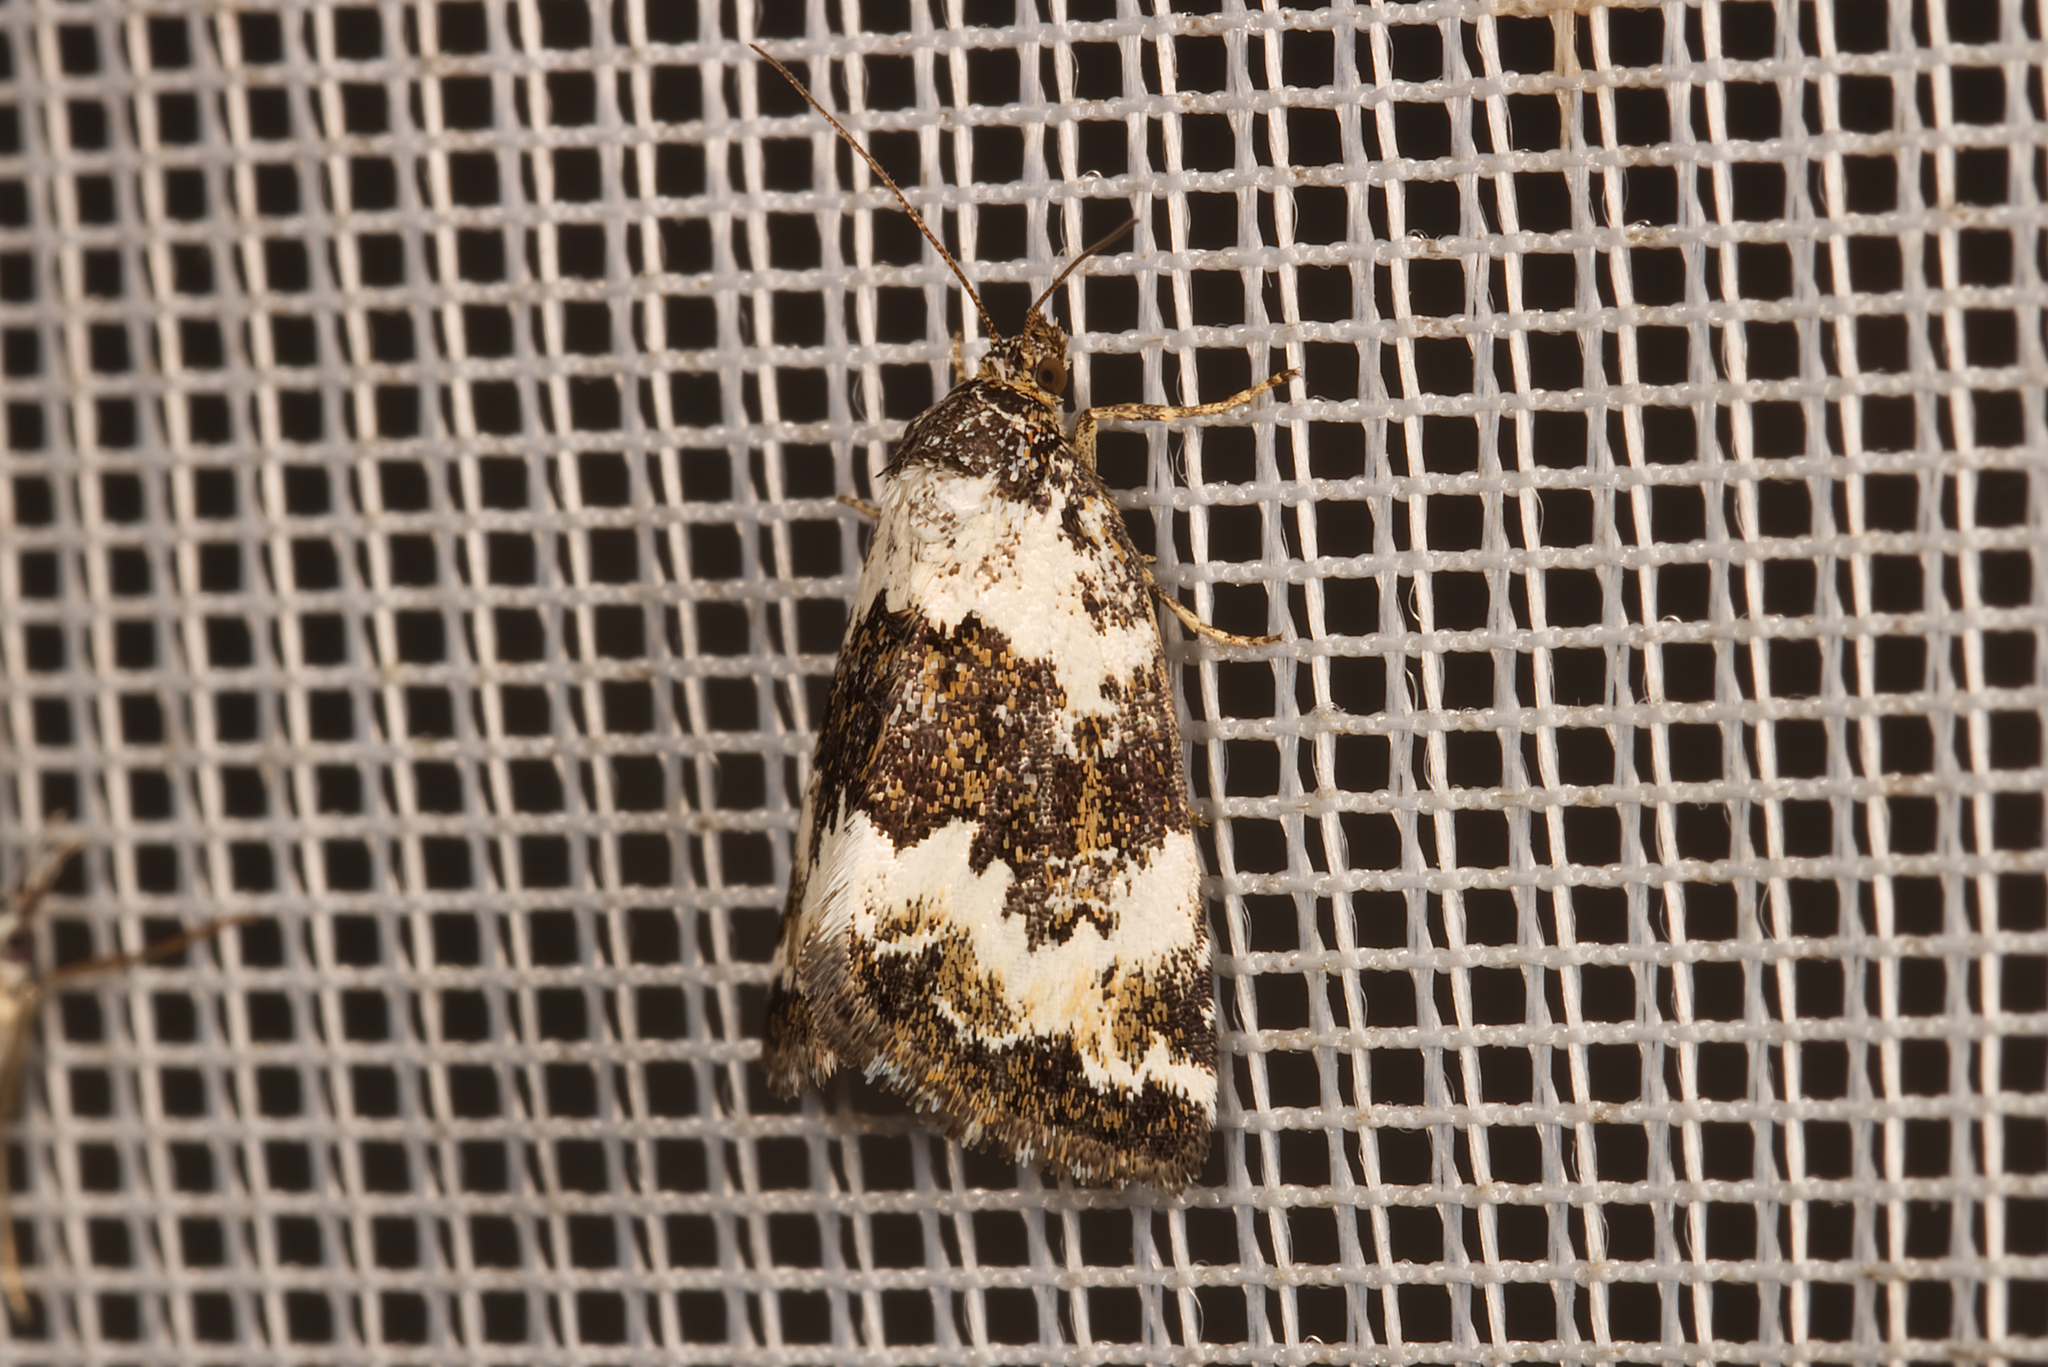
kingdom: Animalia
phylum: Arthropoda
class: Insecta
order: Lepidoptera
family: Noctuidae
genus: Deltote
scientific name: Deltote deceptoria
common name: Pretty marbled
